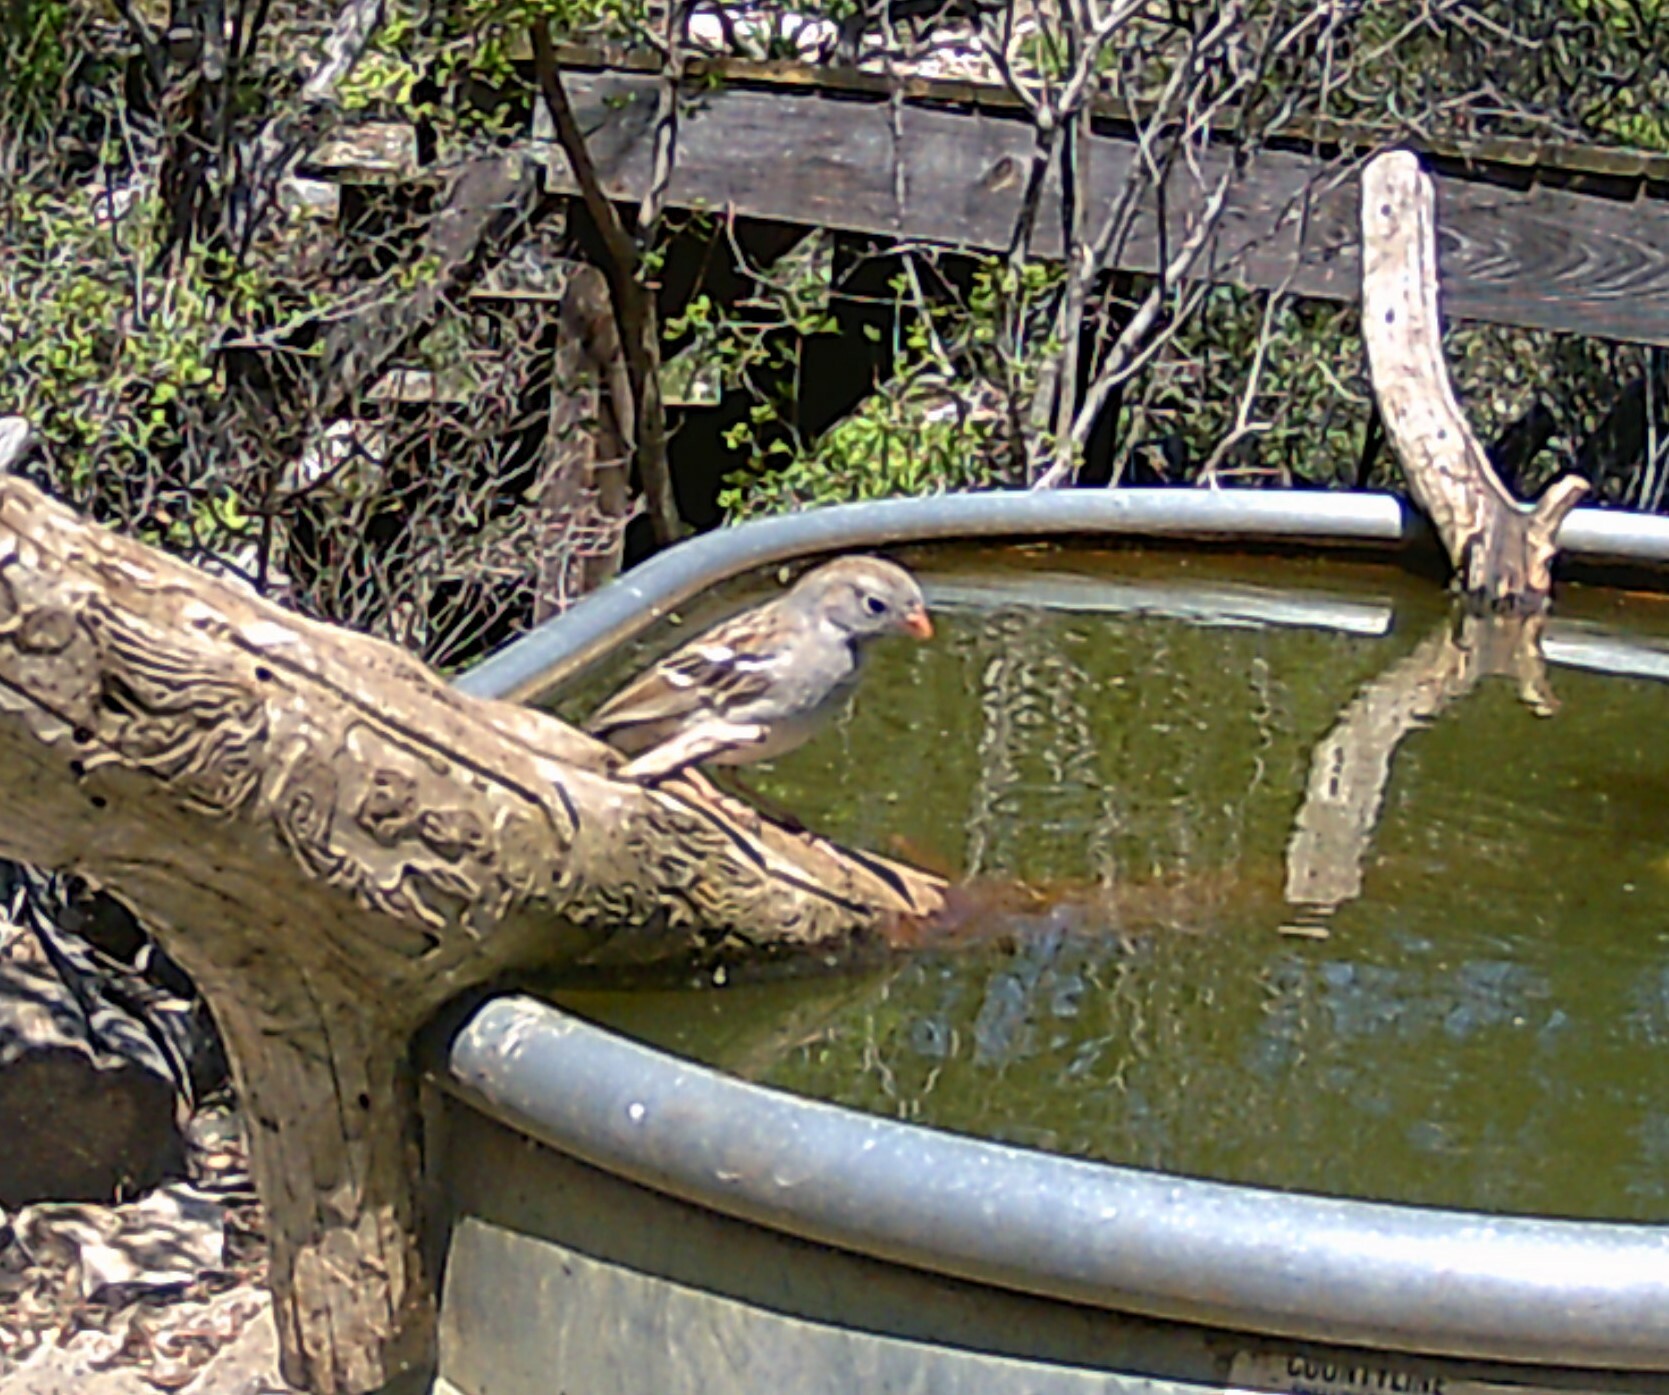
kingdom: Animalia
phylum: Chordata
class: Aves
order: Passeriformes
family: Passerellidae
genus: Spizella
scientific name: Spizella pusilla
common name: Field sparrow
